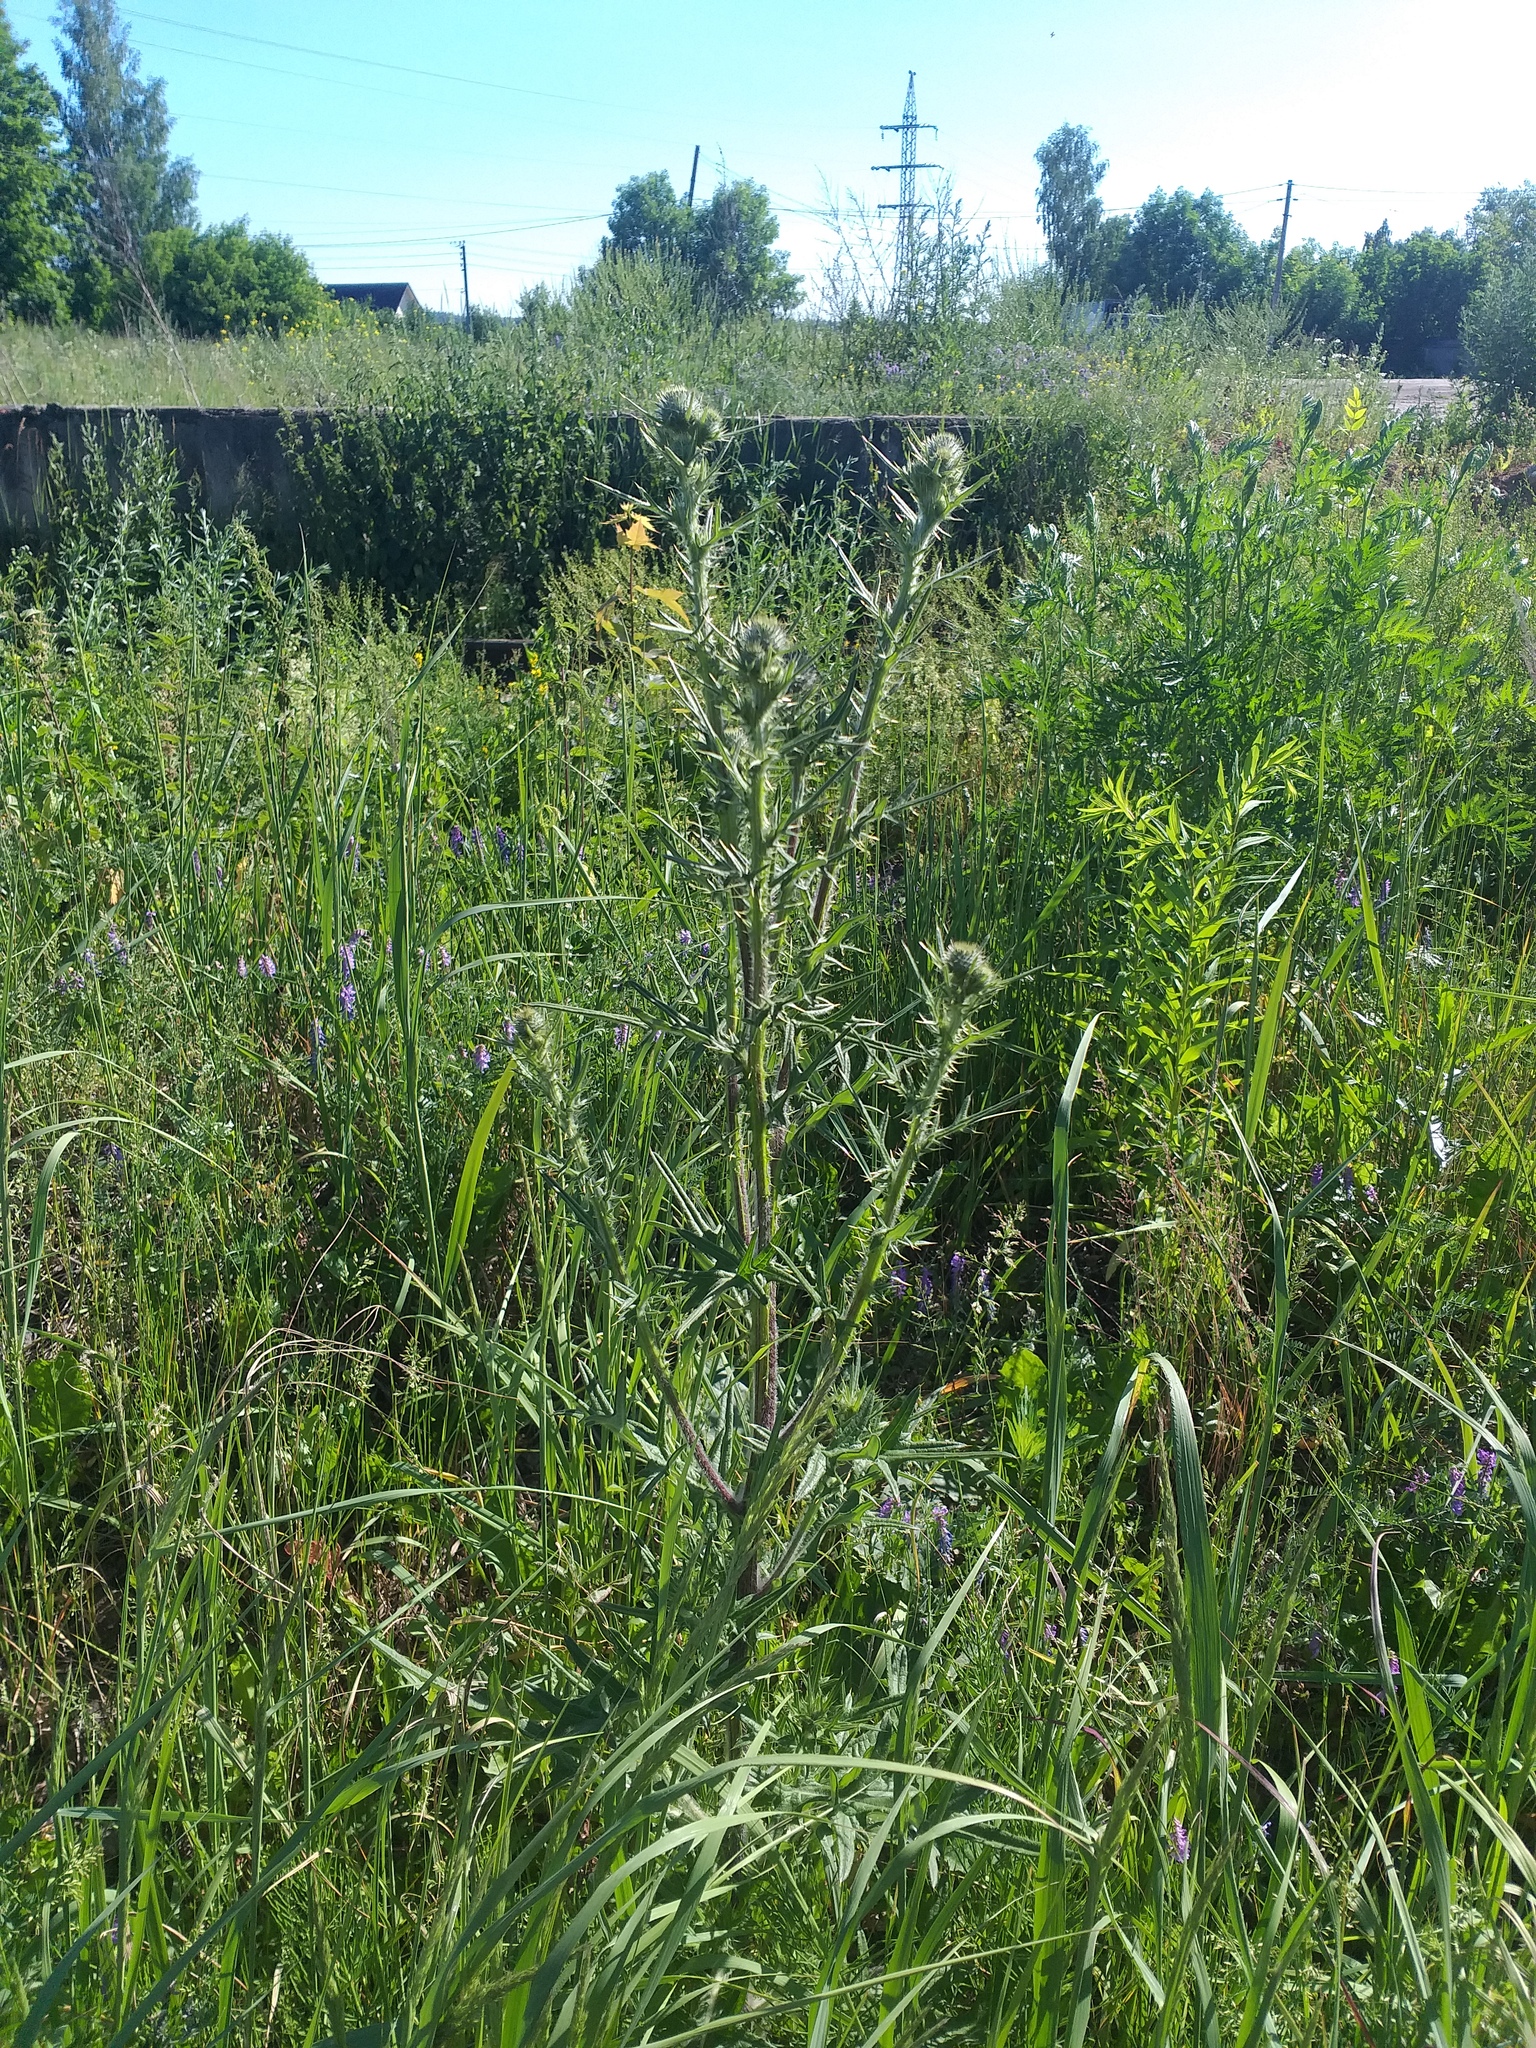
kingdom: Plantae
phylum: Tracheophyta
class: Magnoliopsida
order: Asterales
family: Asteraceae
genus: Cirsium
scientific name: Cirsium vulgare
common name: Bull thistle
